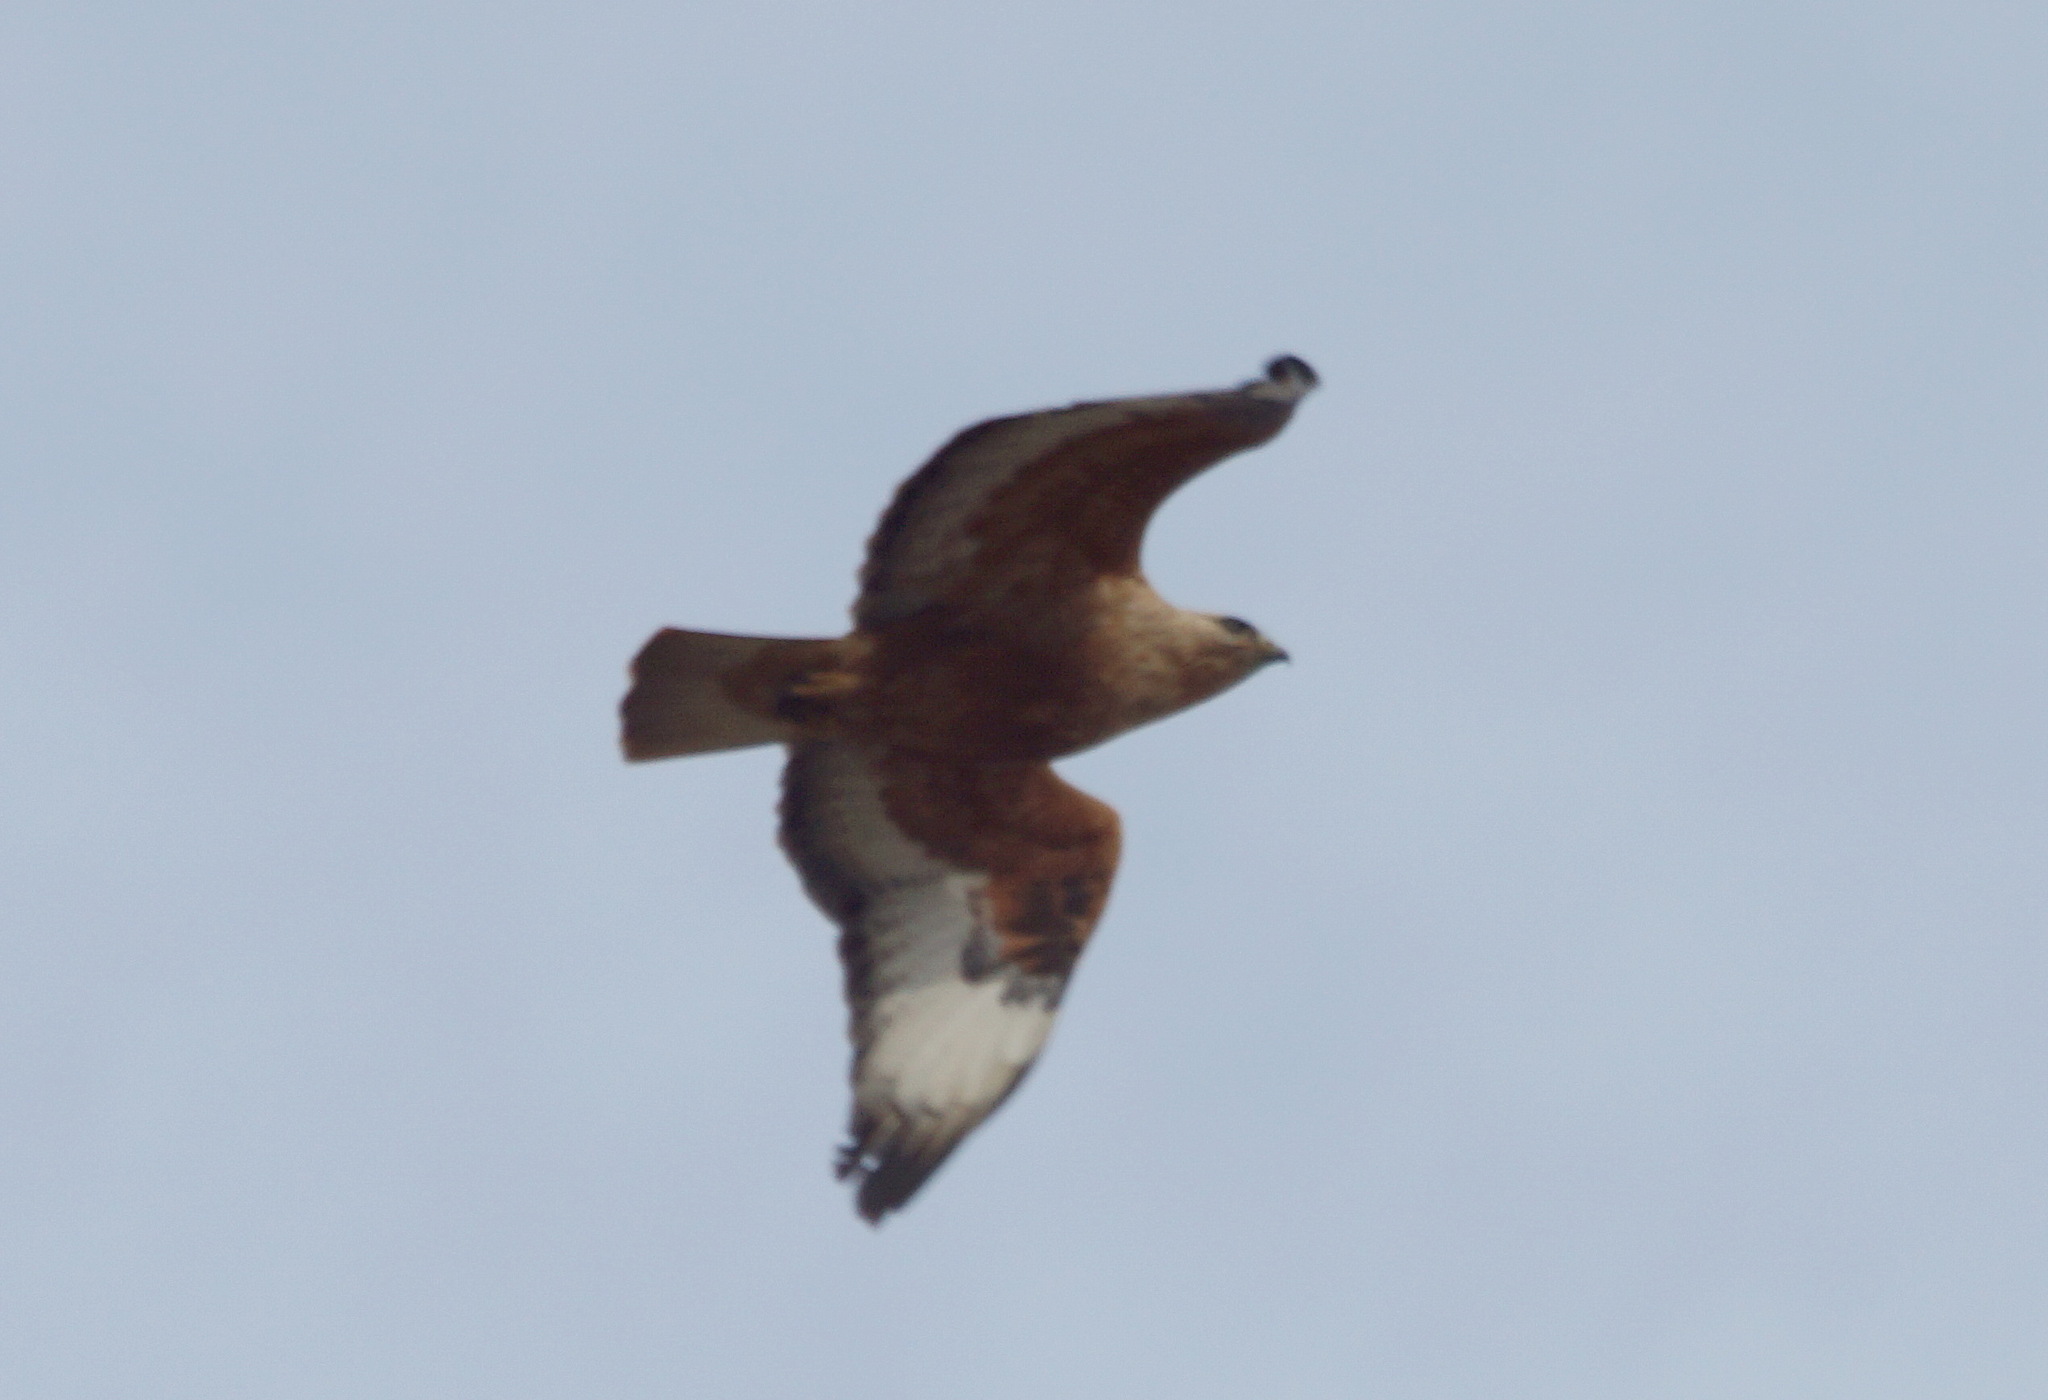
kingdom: Animalia
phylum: Chordata
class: Aves
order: Accipitriformes
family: Accipitridae
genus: Buteo
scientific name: Buteo rufinus
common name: Long-legged buzzard
